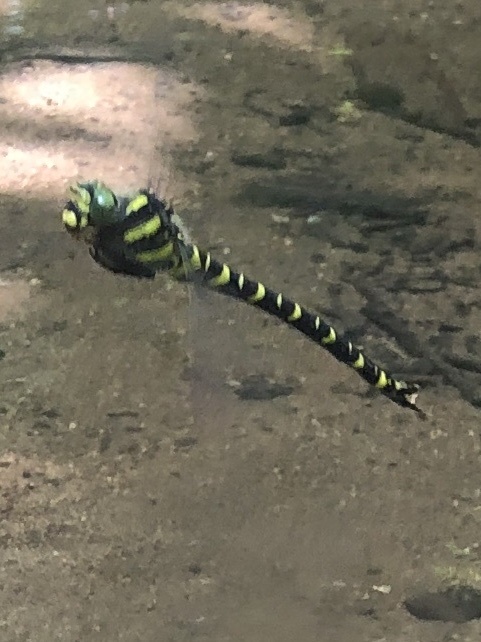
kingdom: Animalia
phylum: Arthropoda
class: Insecta
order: Odonata
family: Cordulegastridae
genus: Cordulegaster
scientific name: Cordulegaster boltonii
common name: Golden-ringed dragonfly
